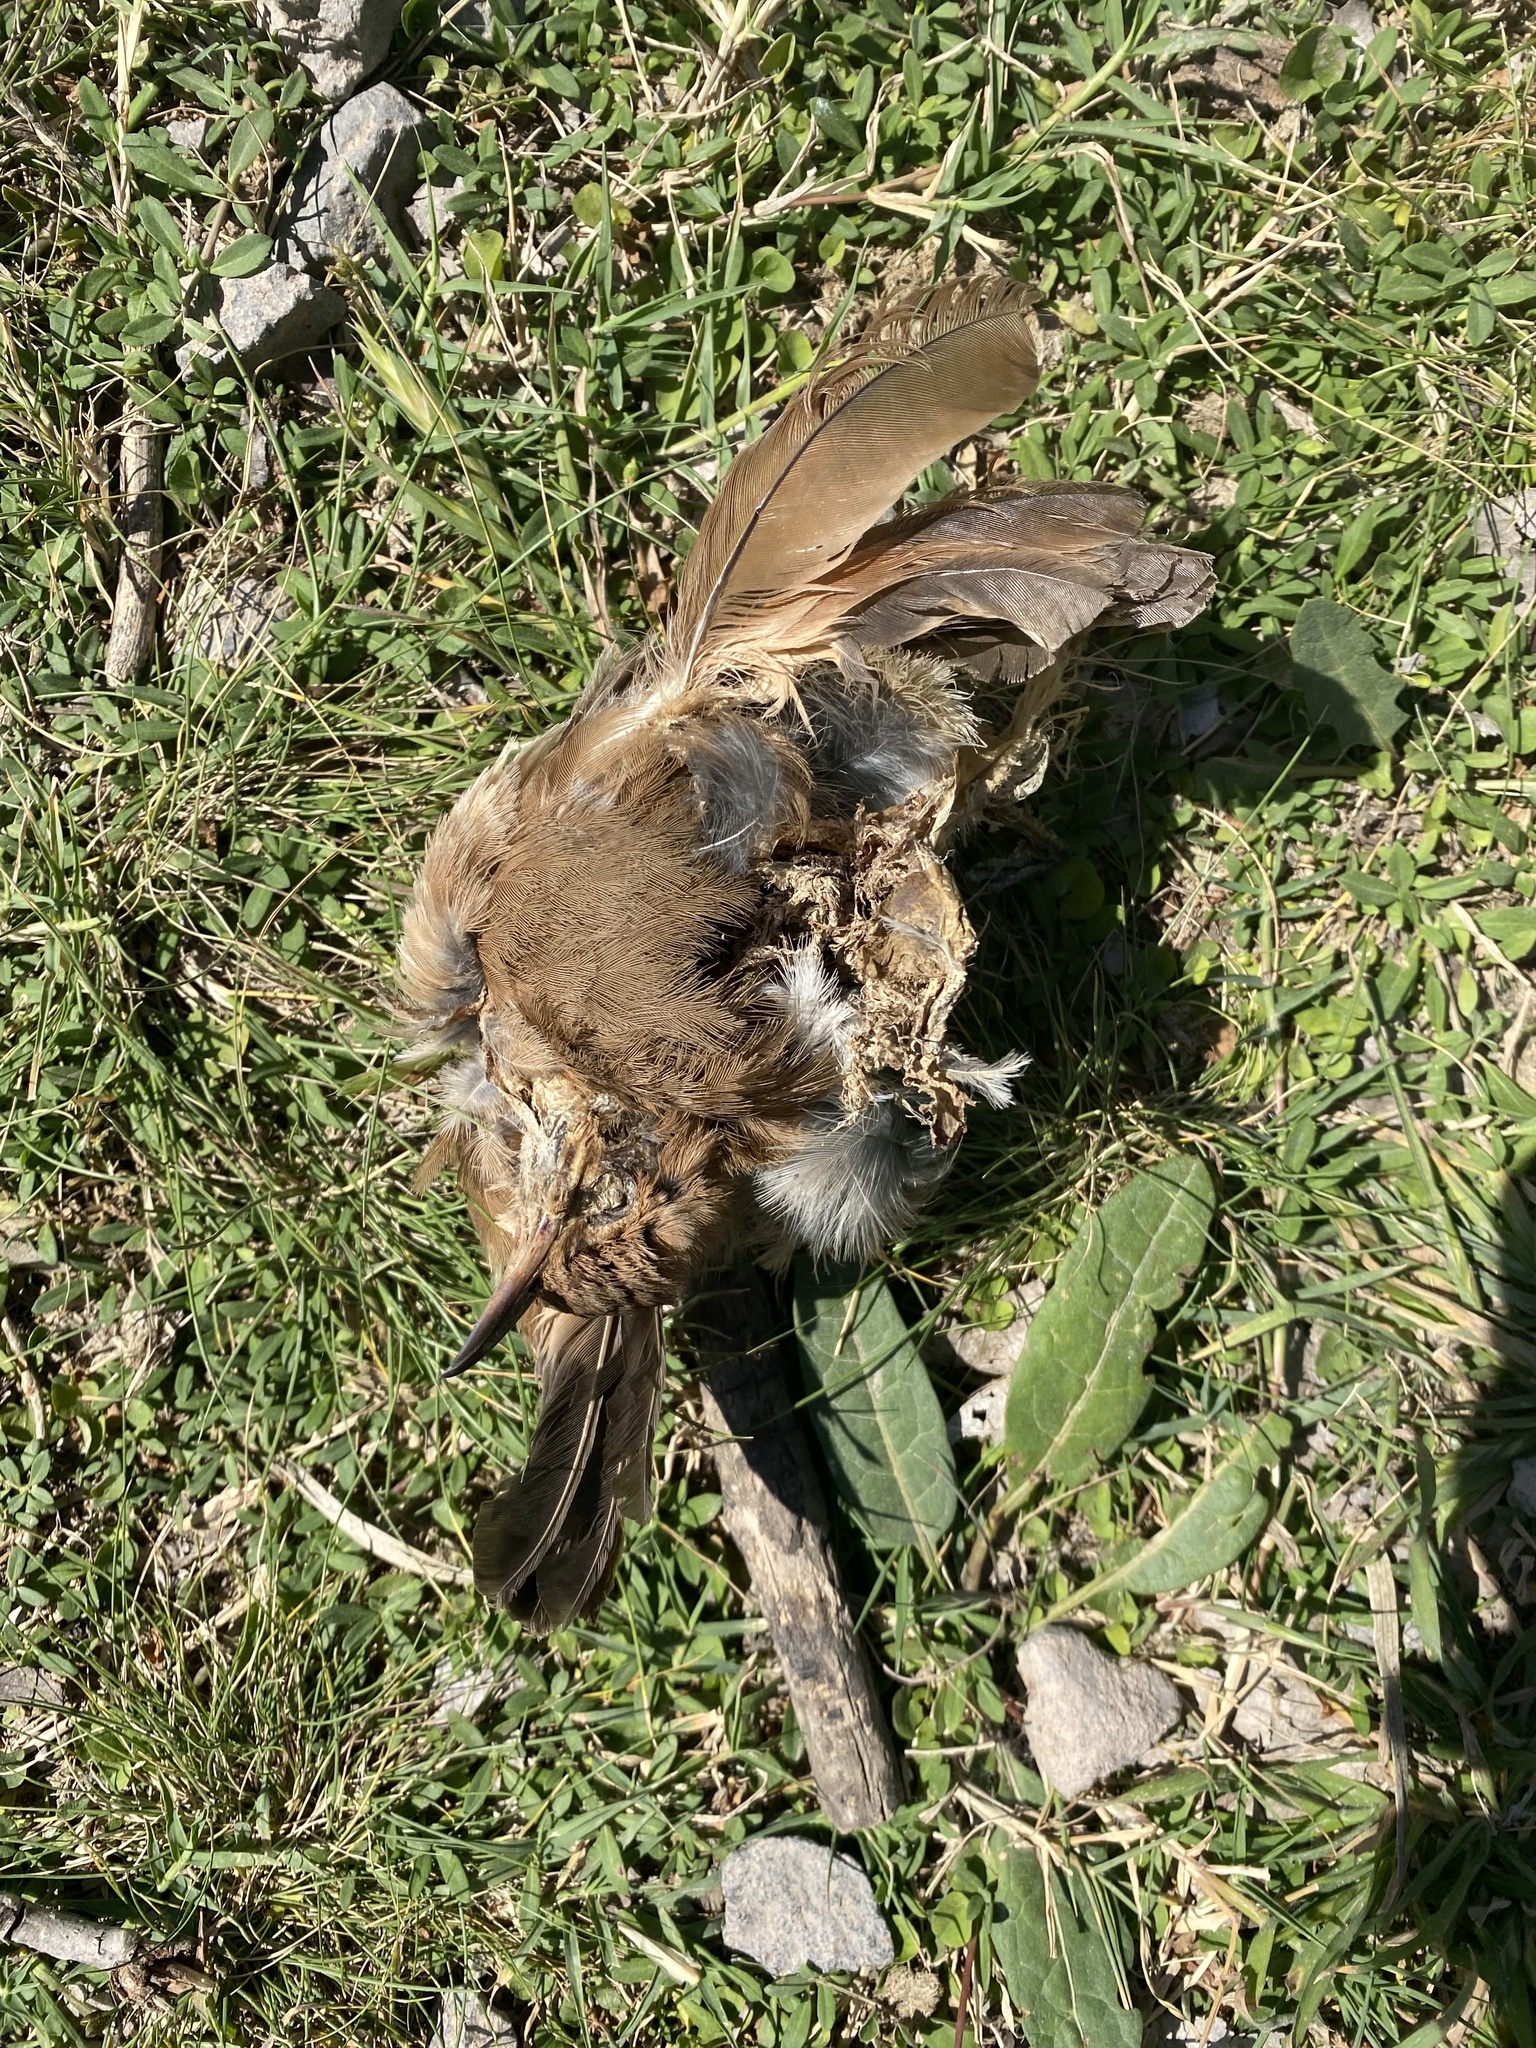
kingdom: Animalia
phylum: Chordata
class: Aves
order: Passeriformes
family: Furnariidae
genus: Furnarius
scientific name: Furnarius rufus
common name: Rufous hornero
